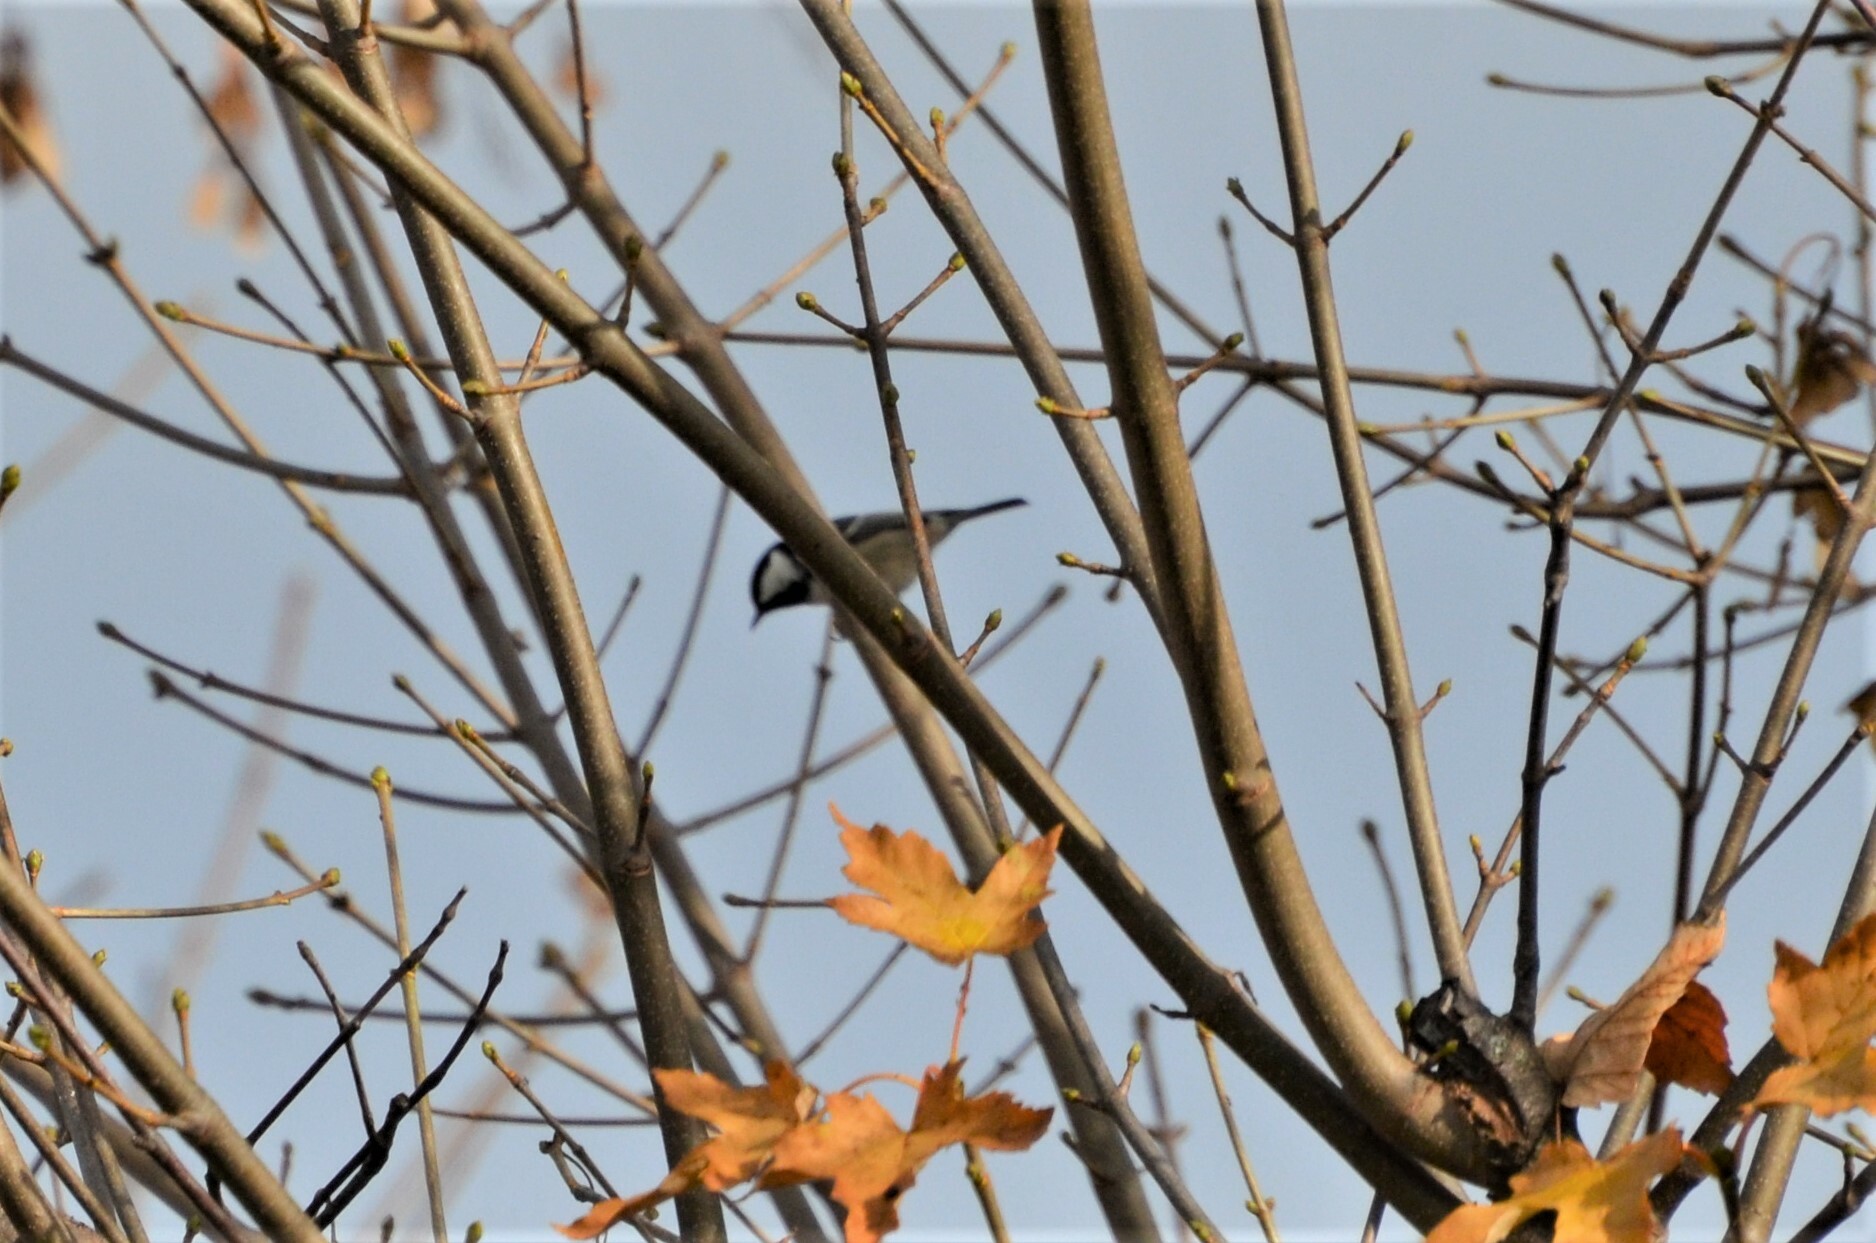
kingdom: Animalia
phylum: Chordata
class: Aves
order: Passeriformes
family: Paridae
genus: Periparus
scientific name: Periparus ater
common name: Coal tit
